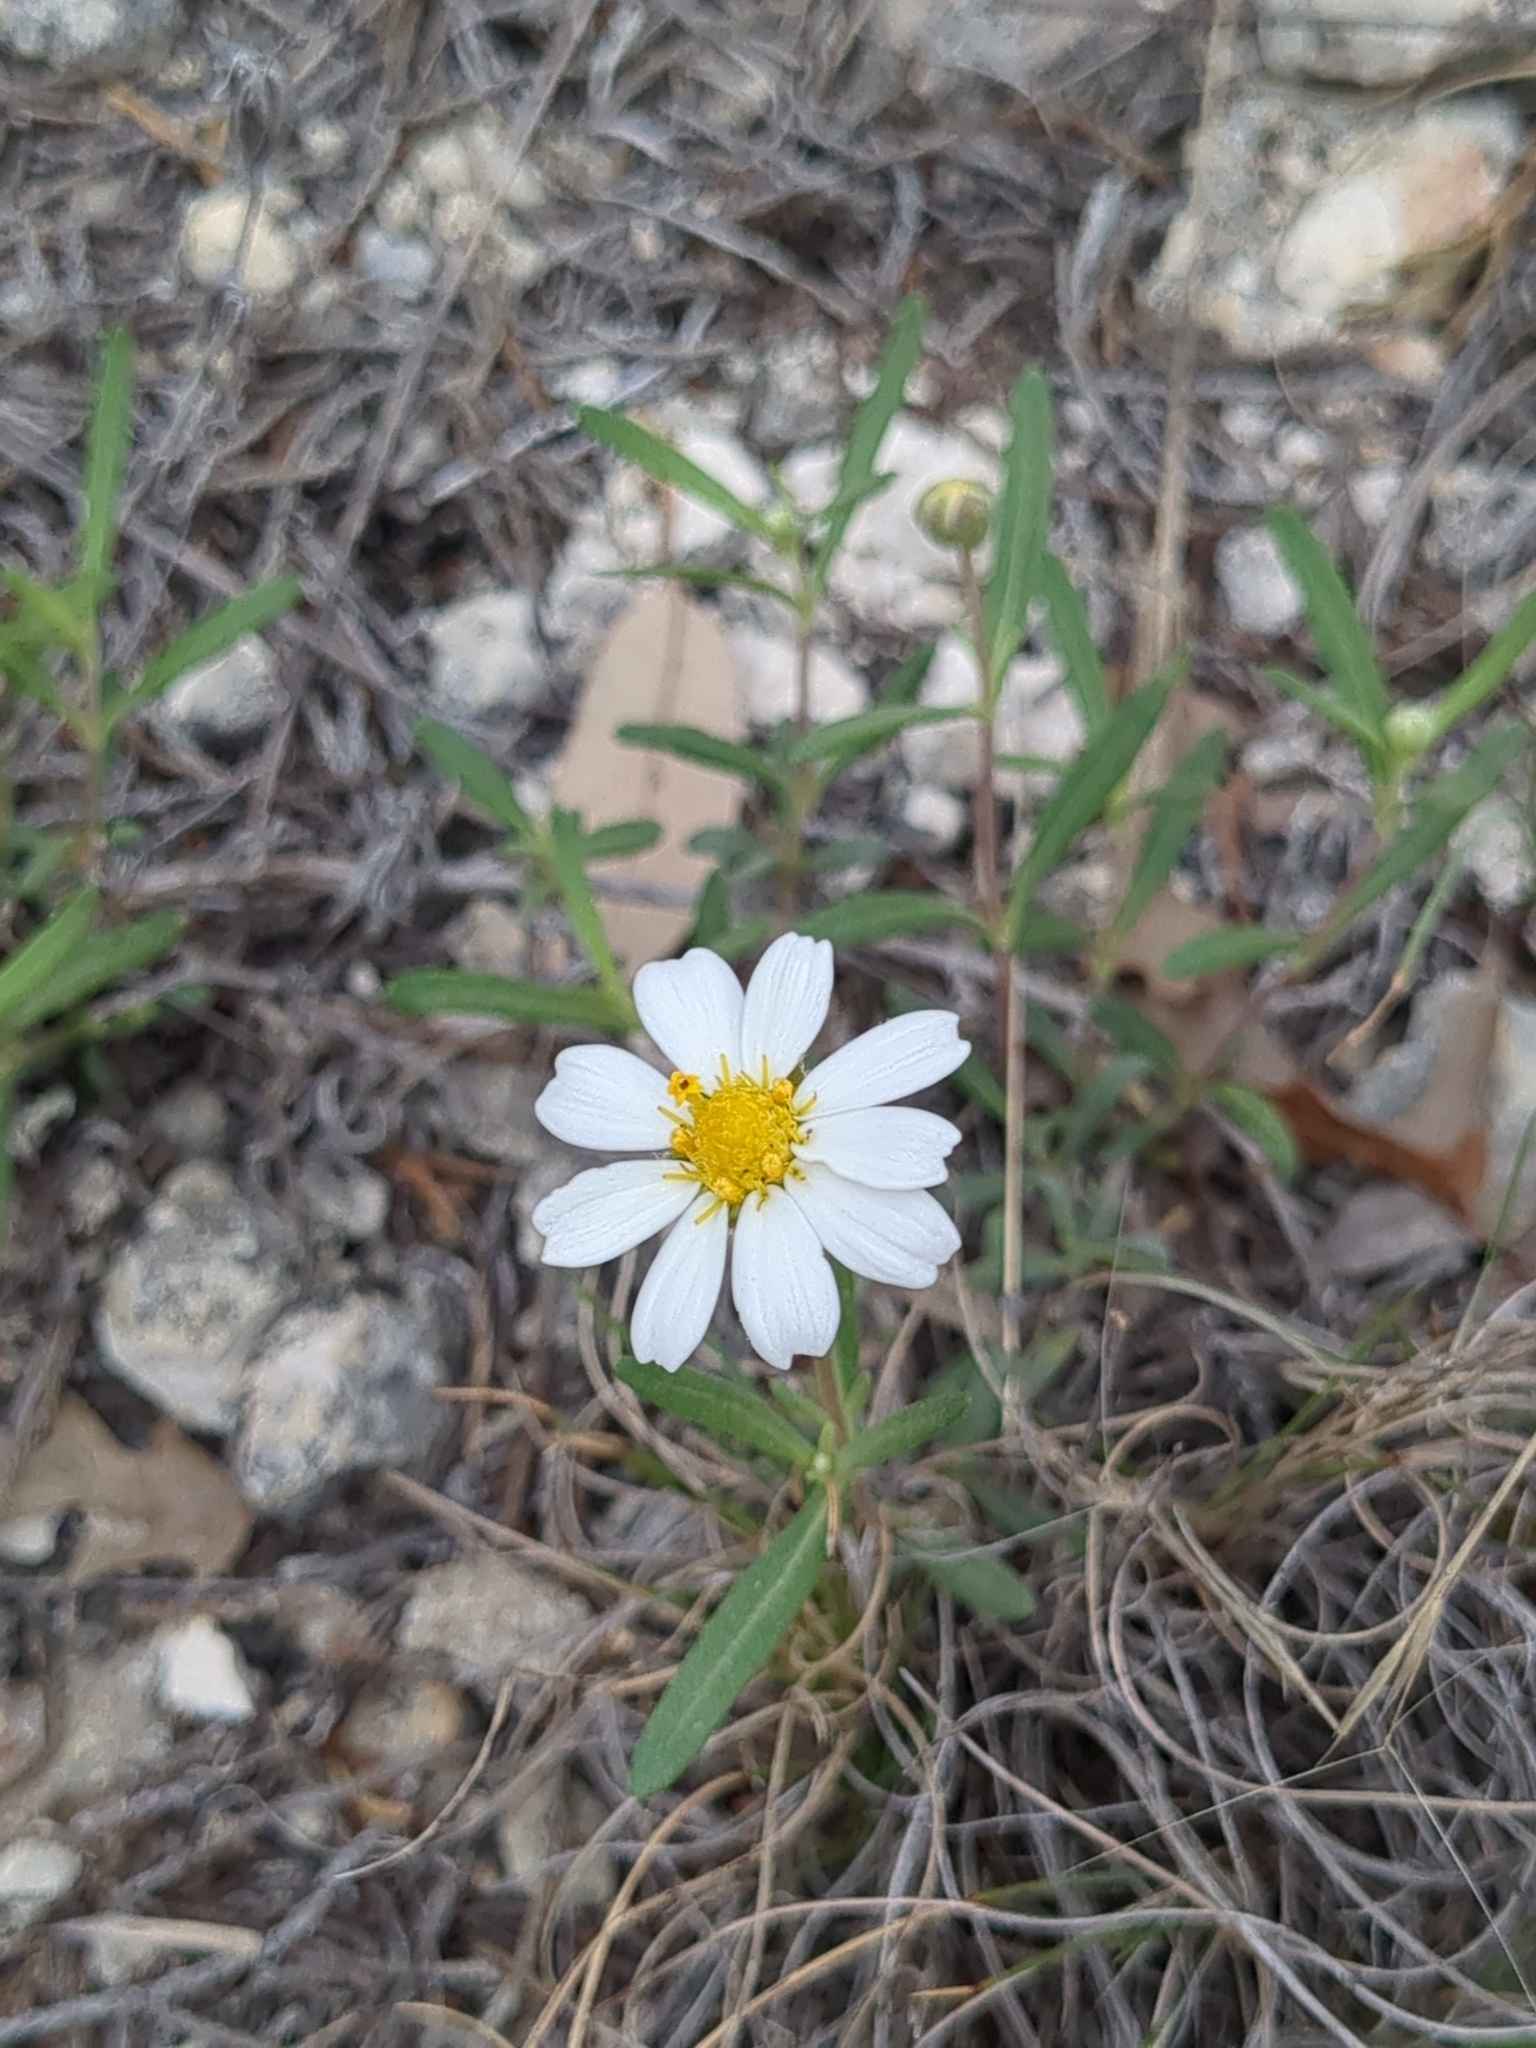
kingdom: Plantae
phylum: Tracheophyta
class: Magnoliopsida
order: Asterales
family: Asteraceae
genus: Melampodium
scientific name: Melampodium leucanthum
